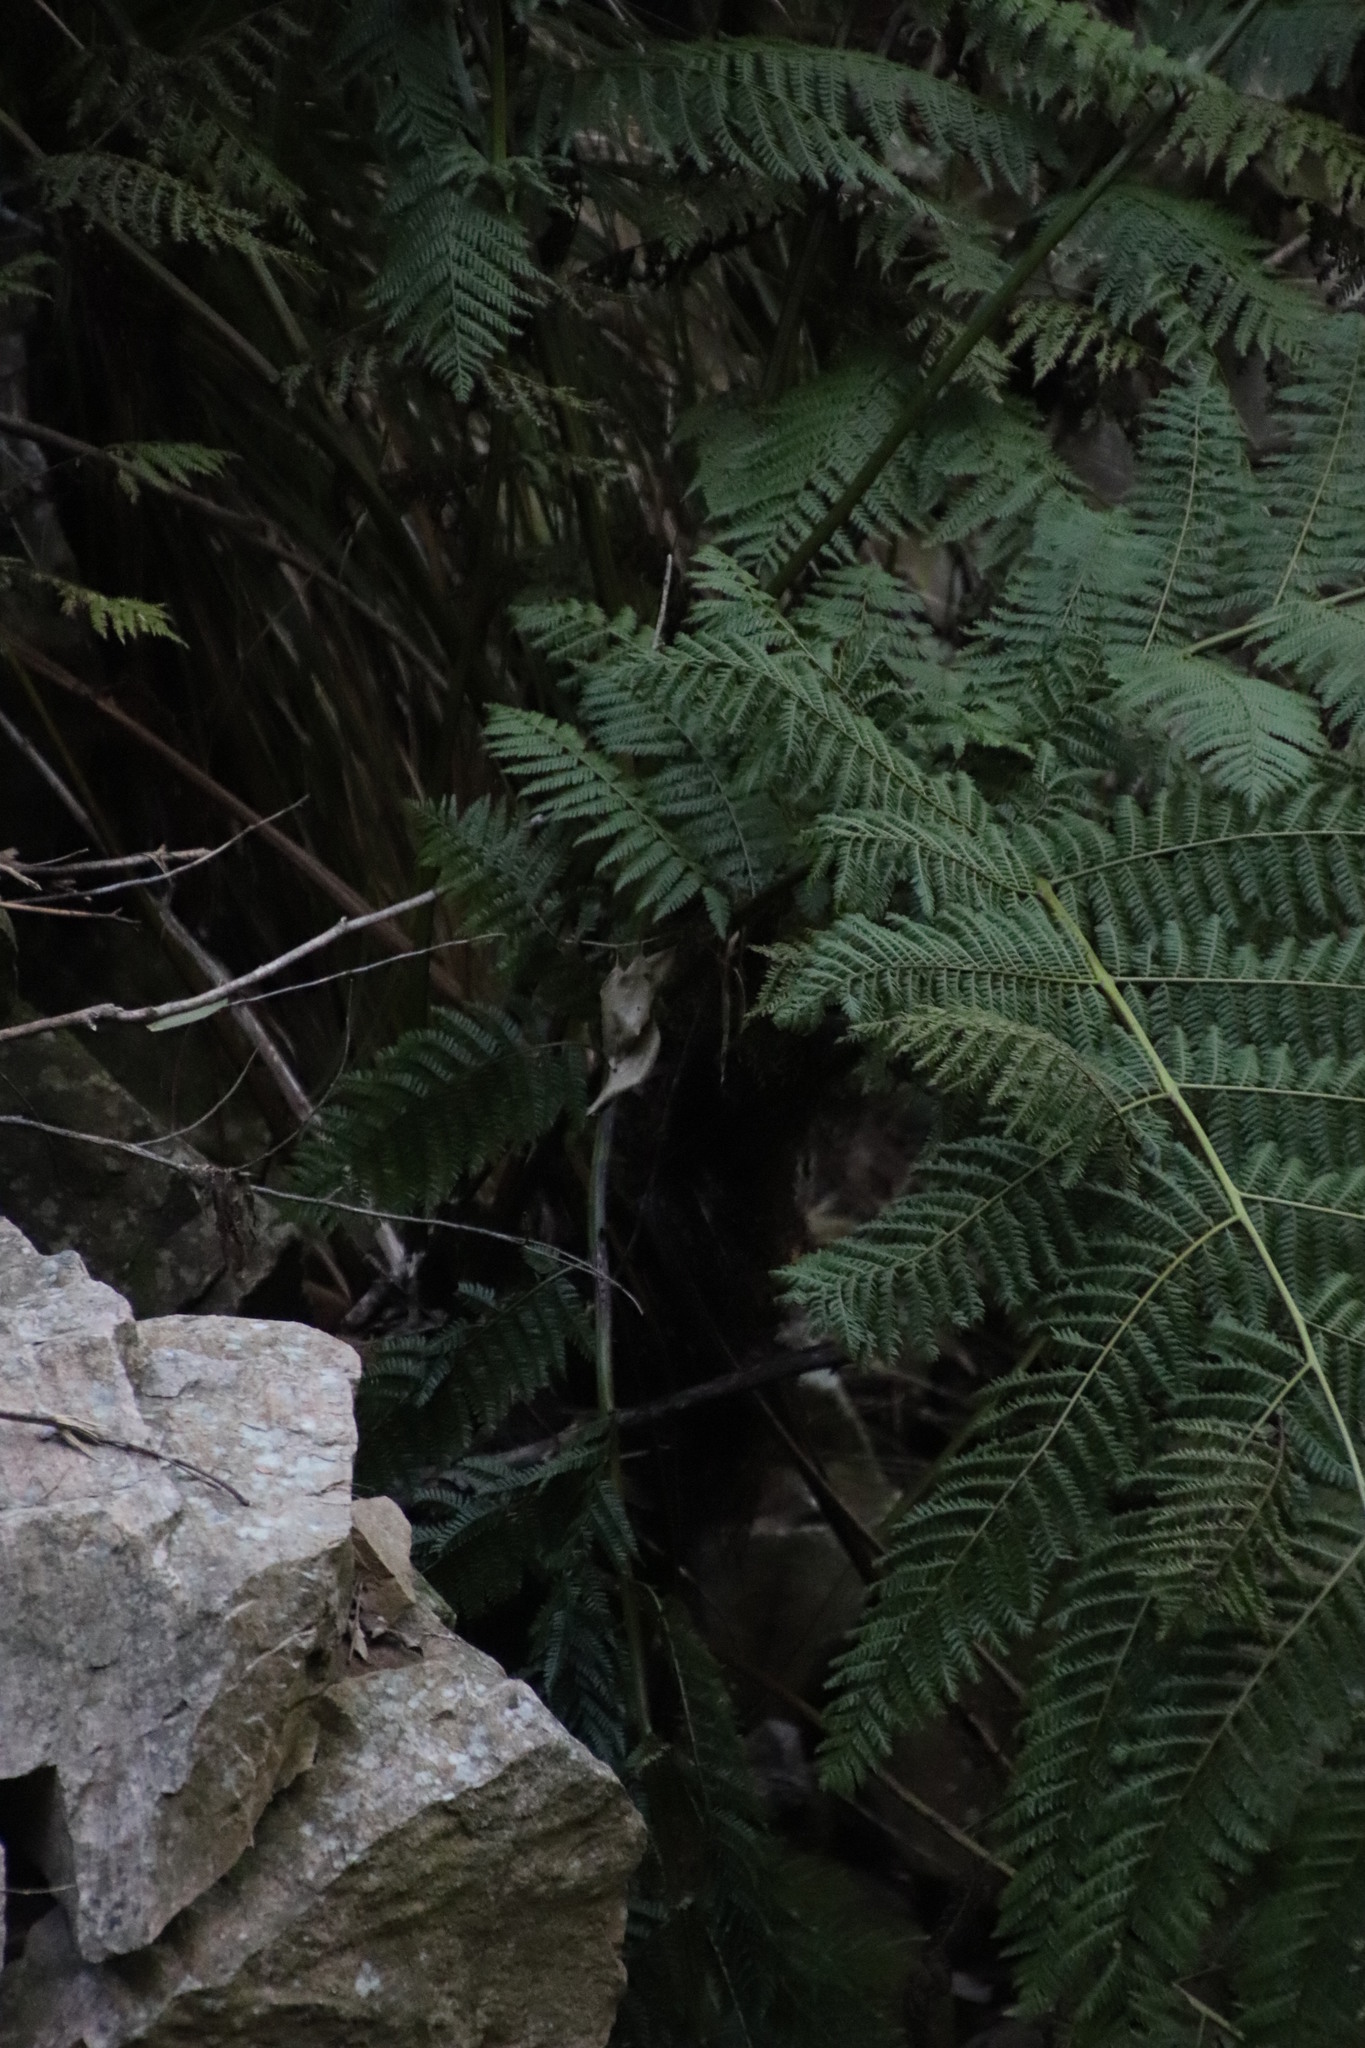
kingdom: Plantae
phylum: Tracheophyta
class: Polypodiopsida
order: Cyatheales
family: Cyatheaceae
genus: Gymnosphaera
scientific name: Gymnosphaera capensis
